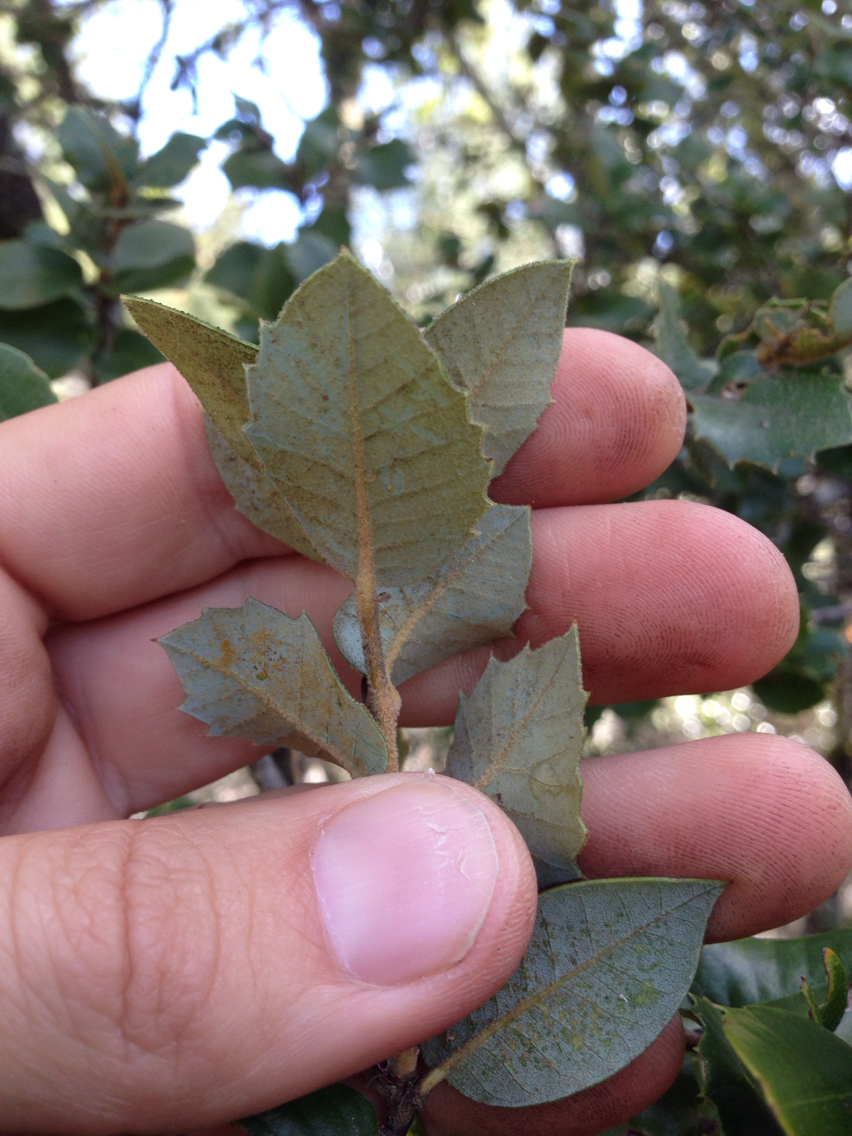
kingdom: Plantae
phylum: Tracheophyta
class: Magnoliopsida
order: Fagales
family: Fagaceae
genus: Quercus
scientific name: Quercus chrysolepis
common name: Canyon live oak
